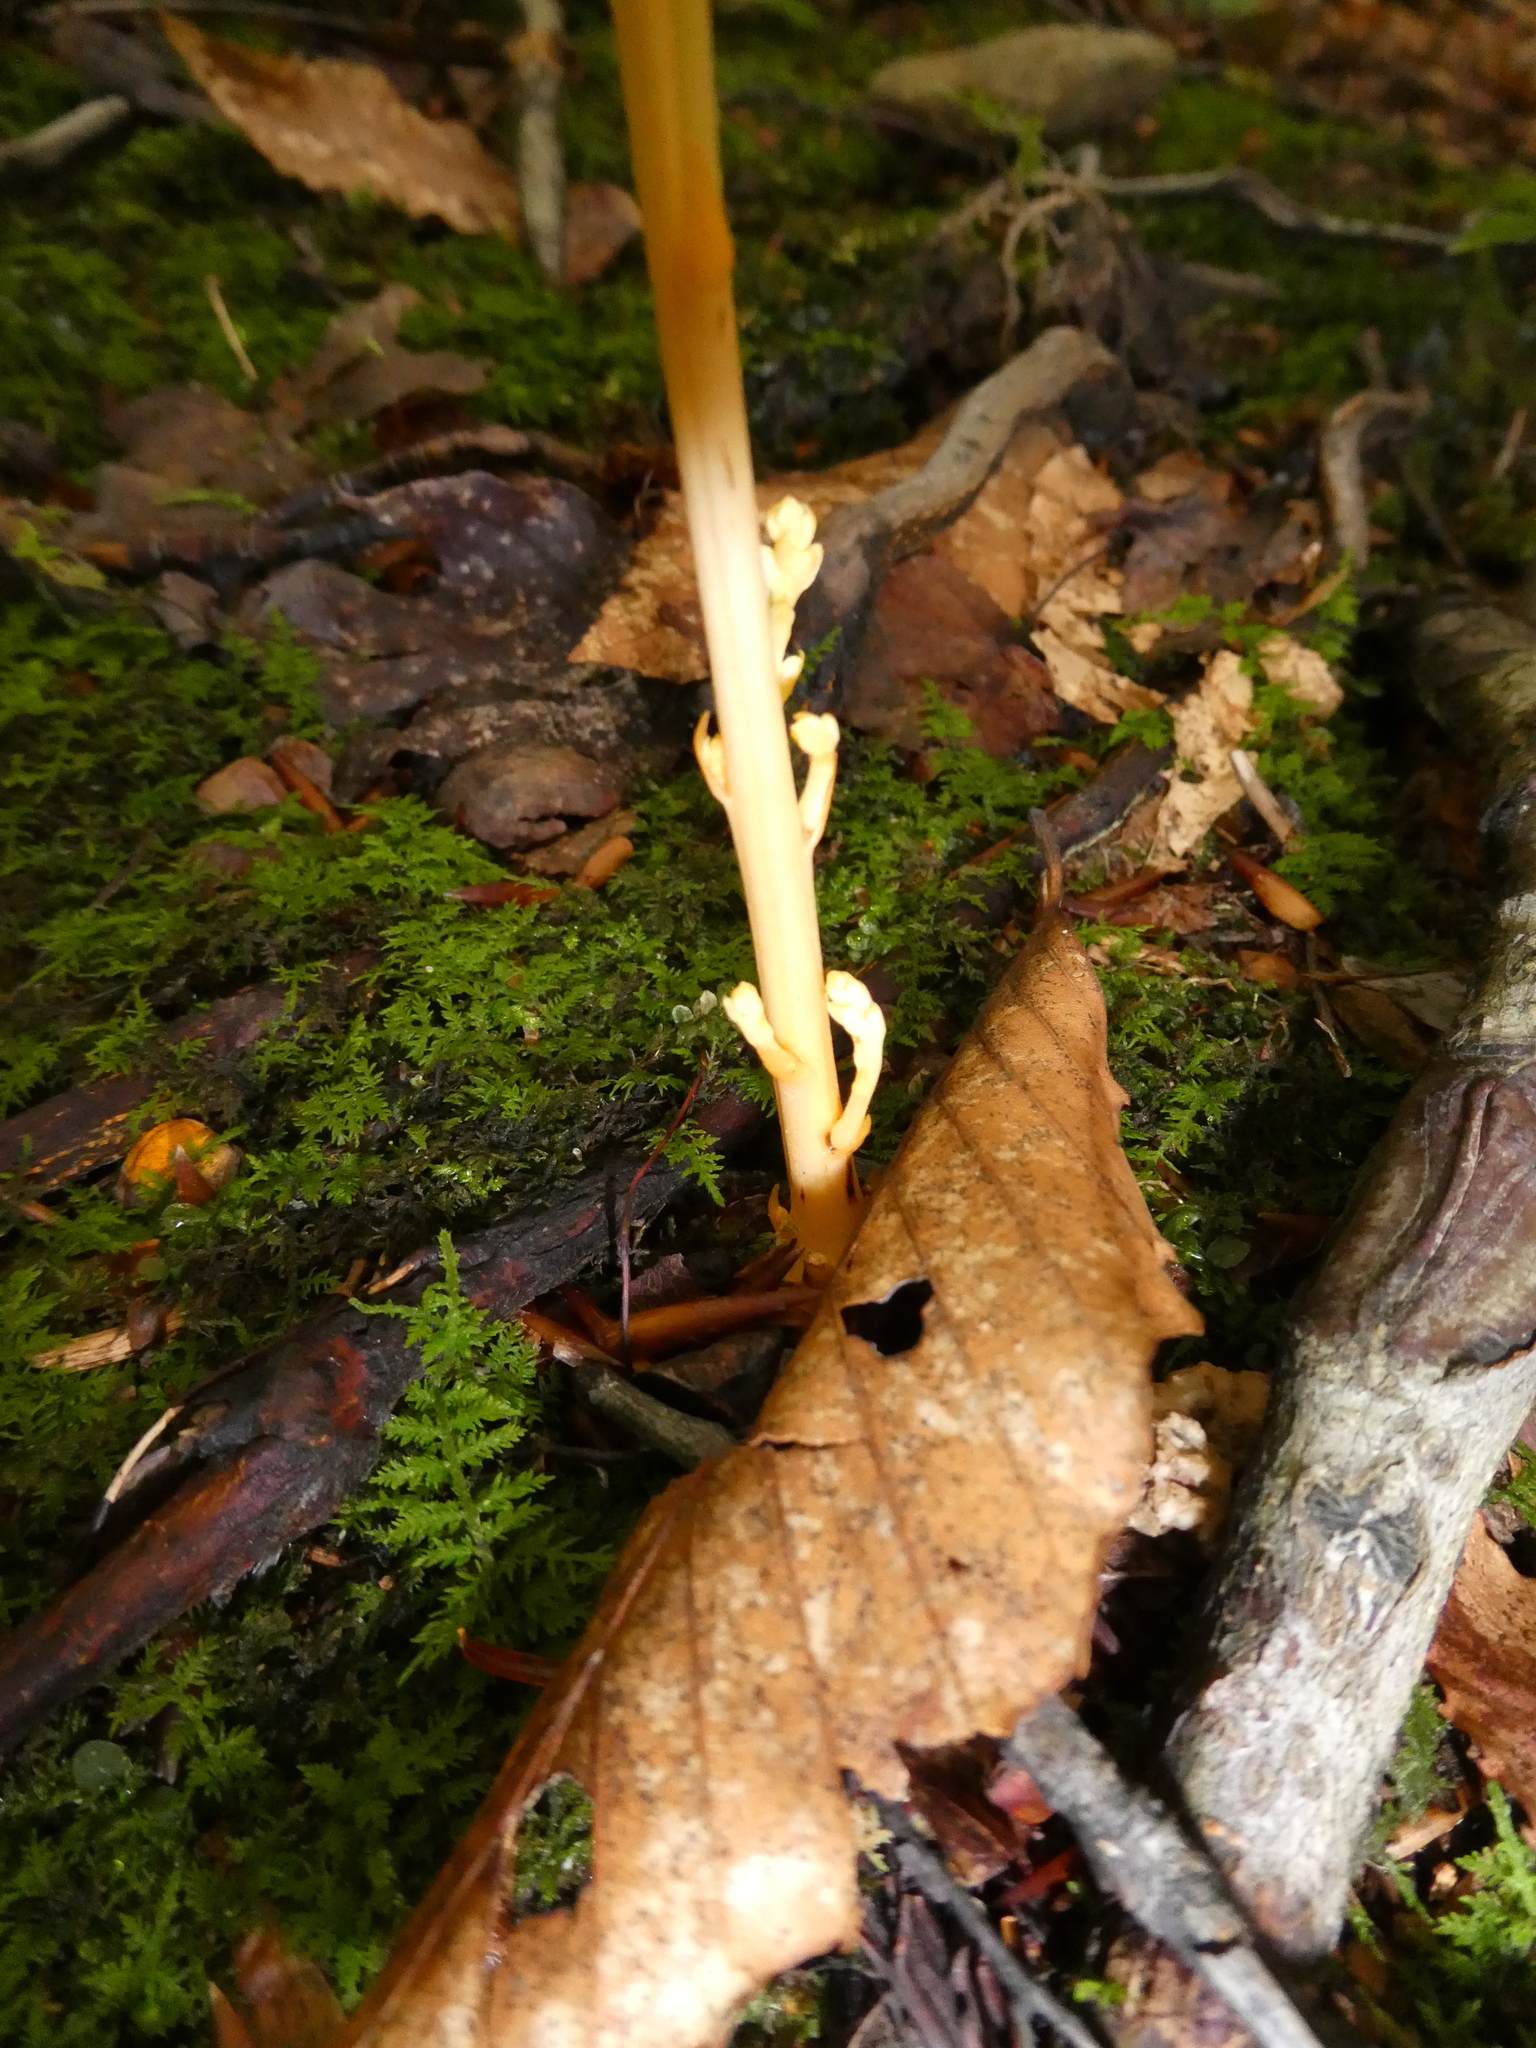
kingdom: Plantae
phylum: Tracheophyta
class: Magnoliopsida
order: Lamiales
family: Orobanchaceae
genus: Epifagus
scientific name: Epifagus virginiana
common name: Beechdrops
